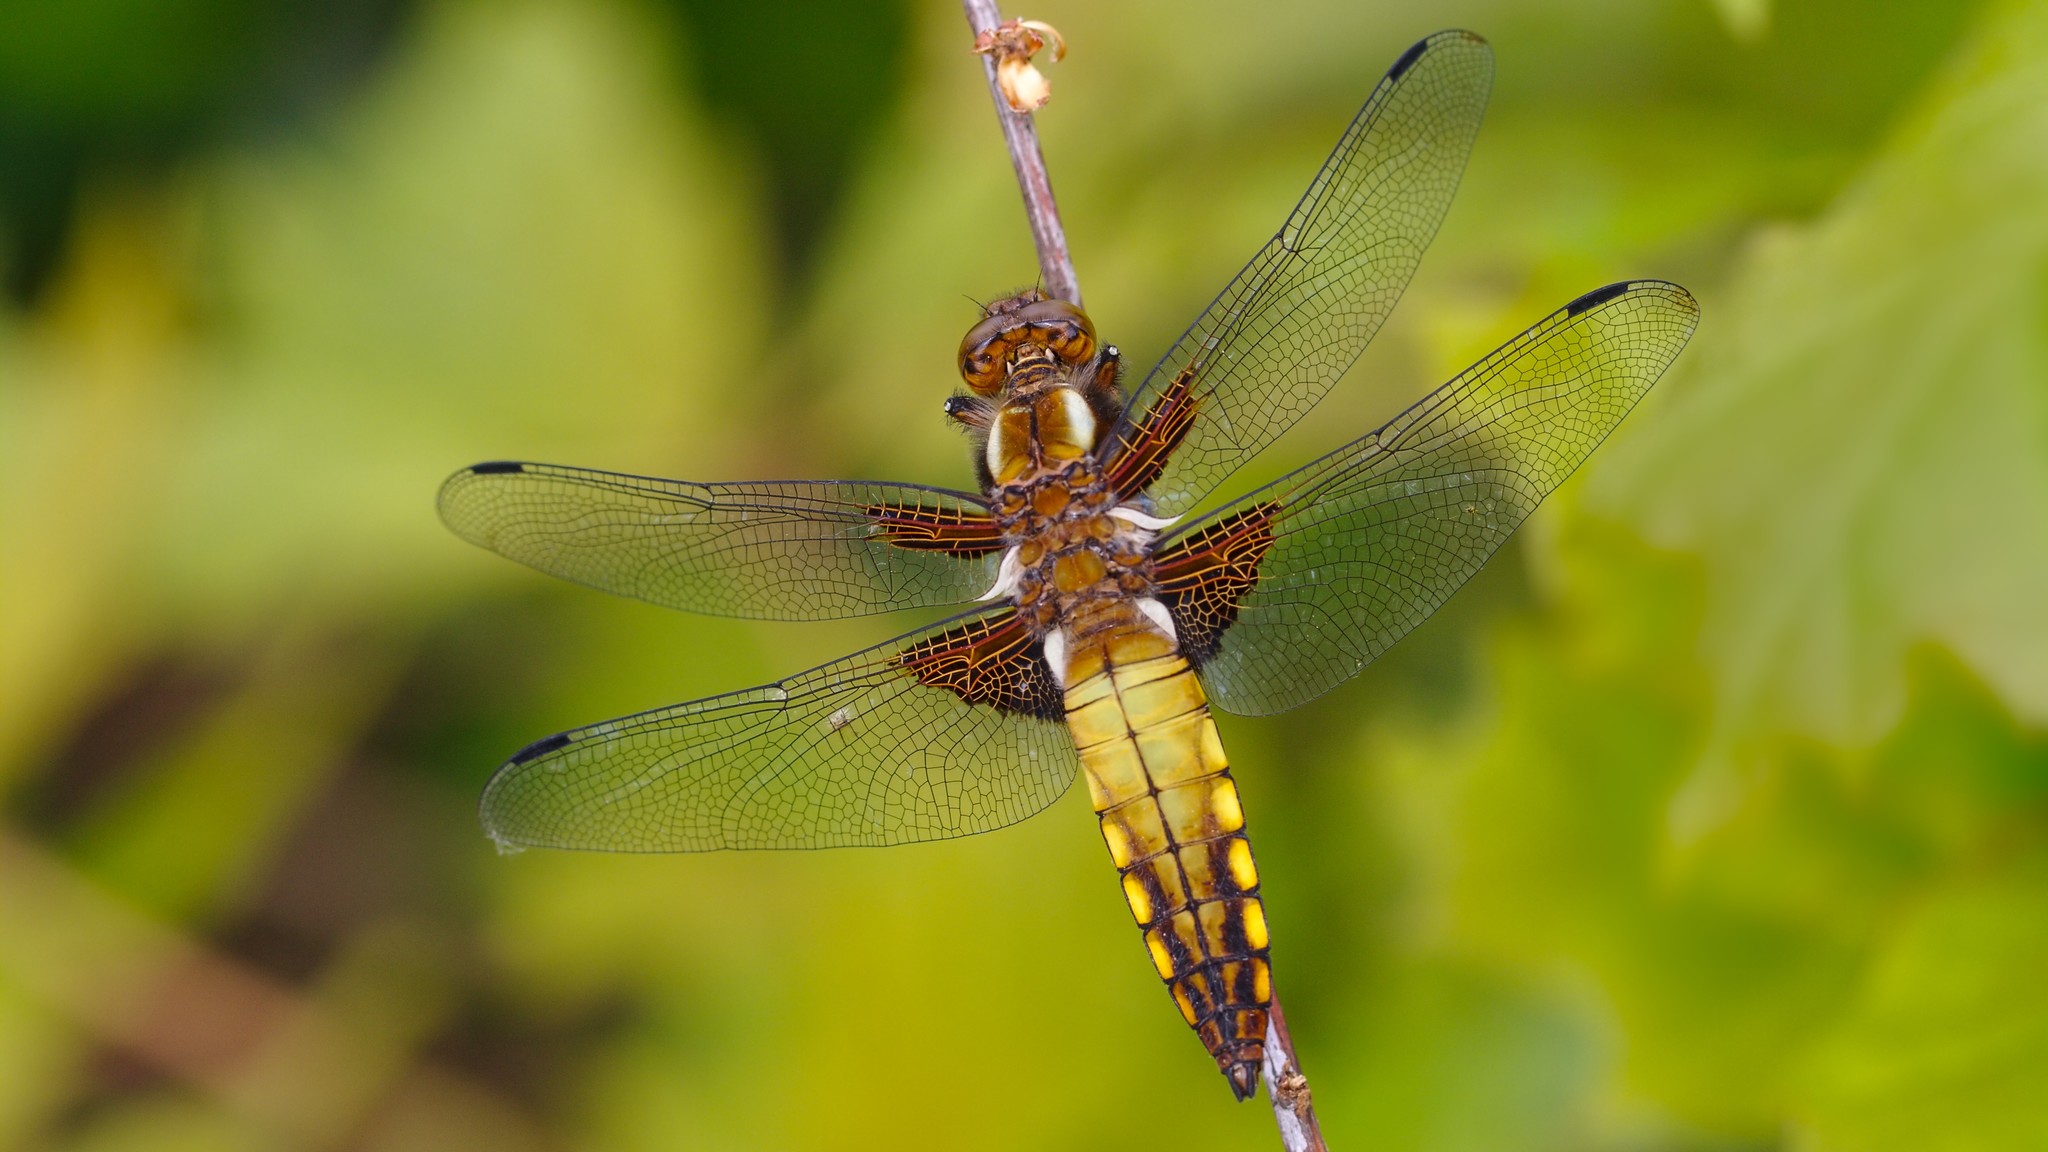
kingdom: Animalia
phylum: Arthropoda
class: Insecta
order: Odonata
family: Libellulidae
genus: Libellula
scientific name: Libellula depressa
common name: Broad-bodied chaser
